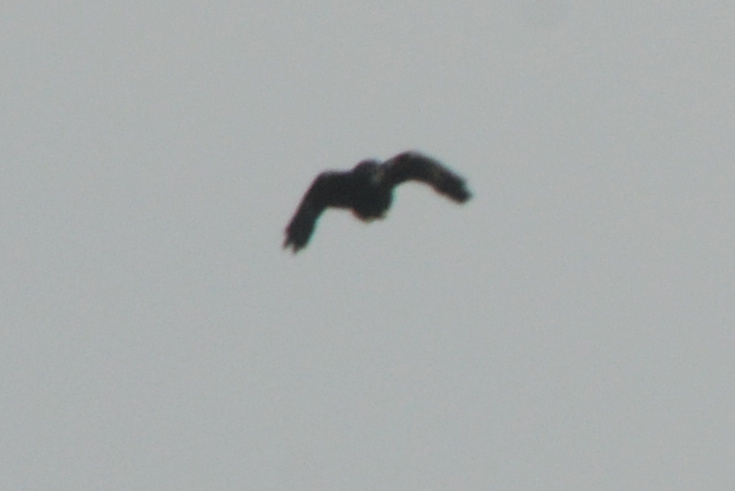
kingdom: Animalia
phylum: Chordata
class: Aves
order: Passeriformes
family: Corvidae
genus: Corvus
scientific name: Corvus brachyrhynchos
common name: American crow
